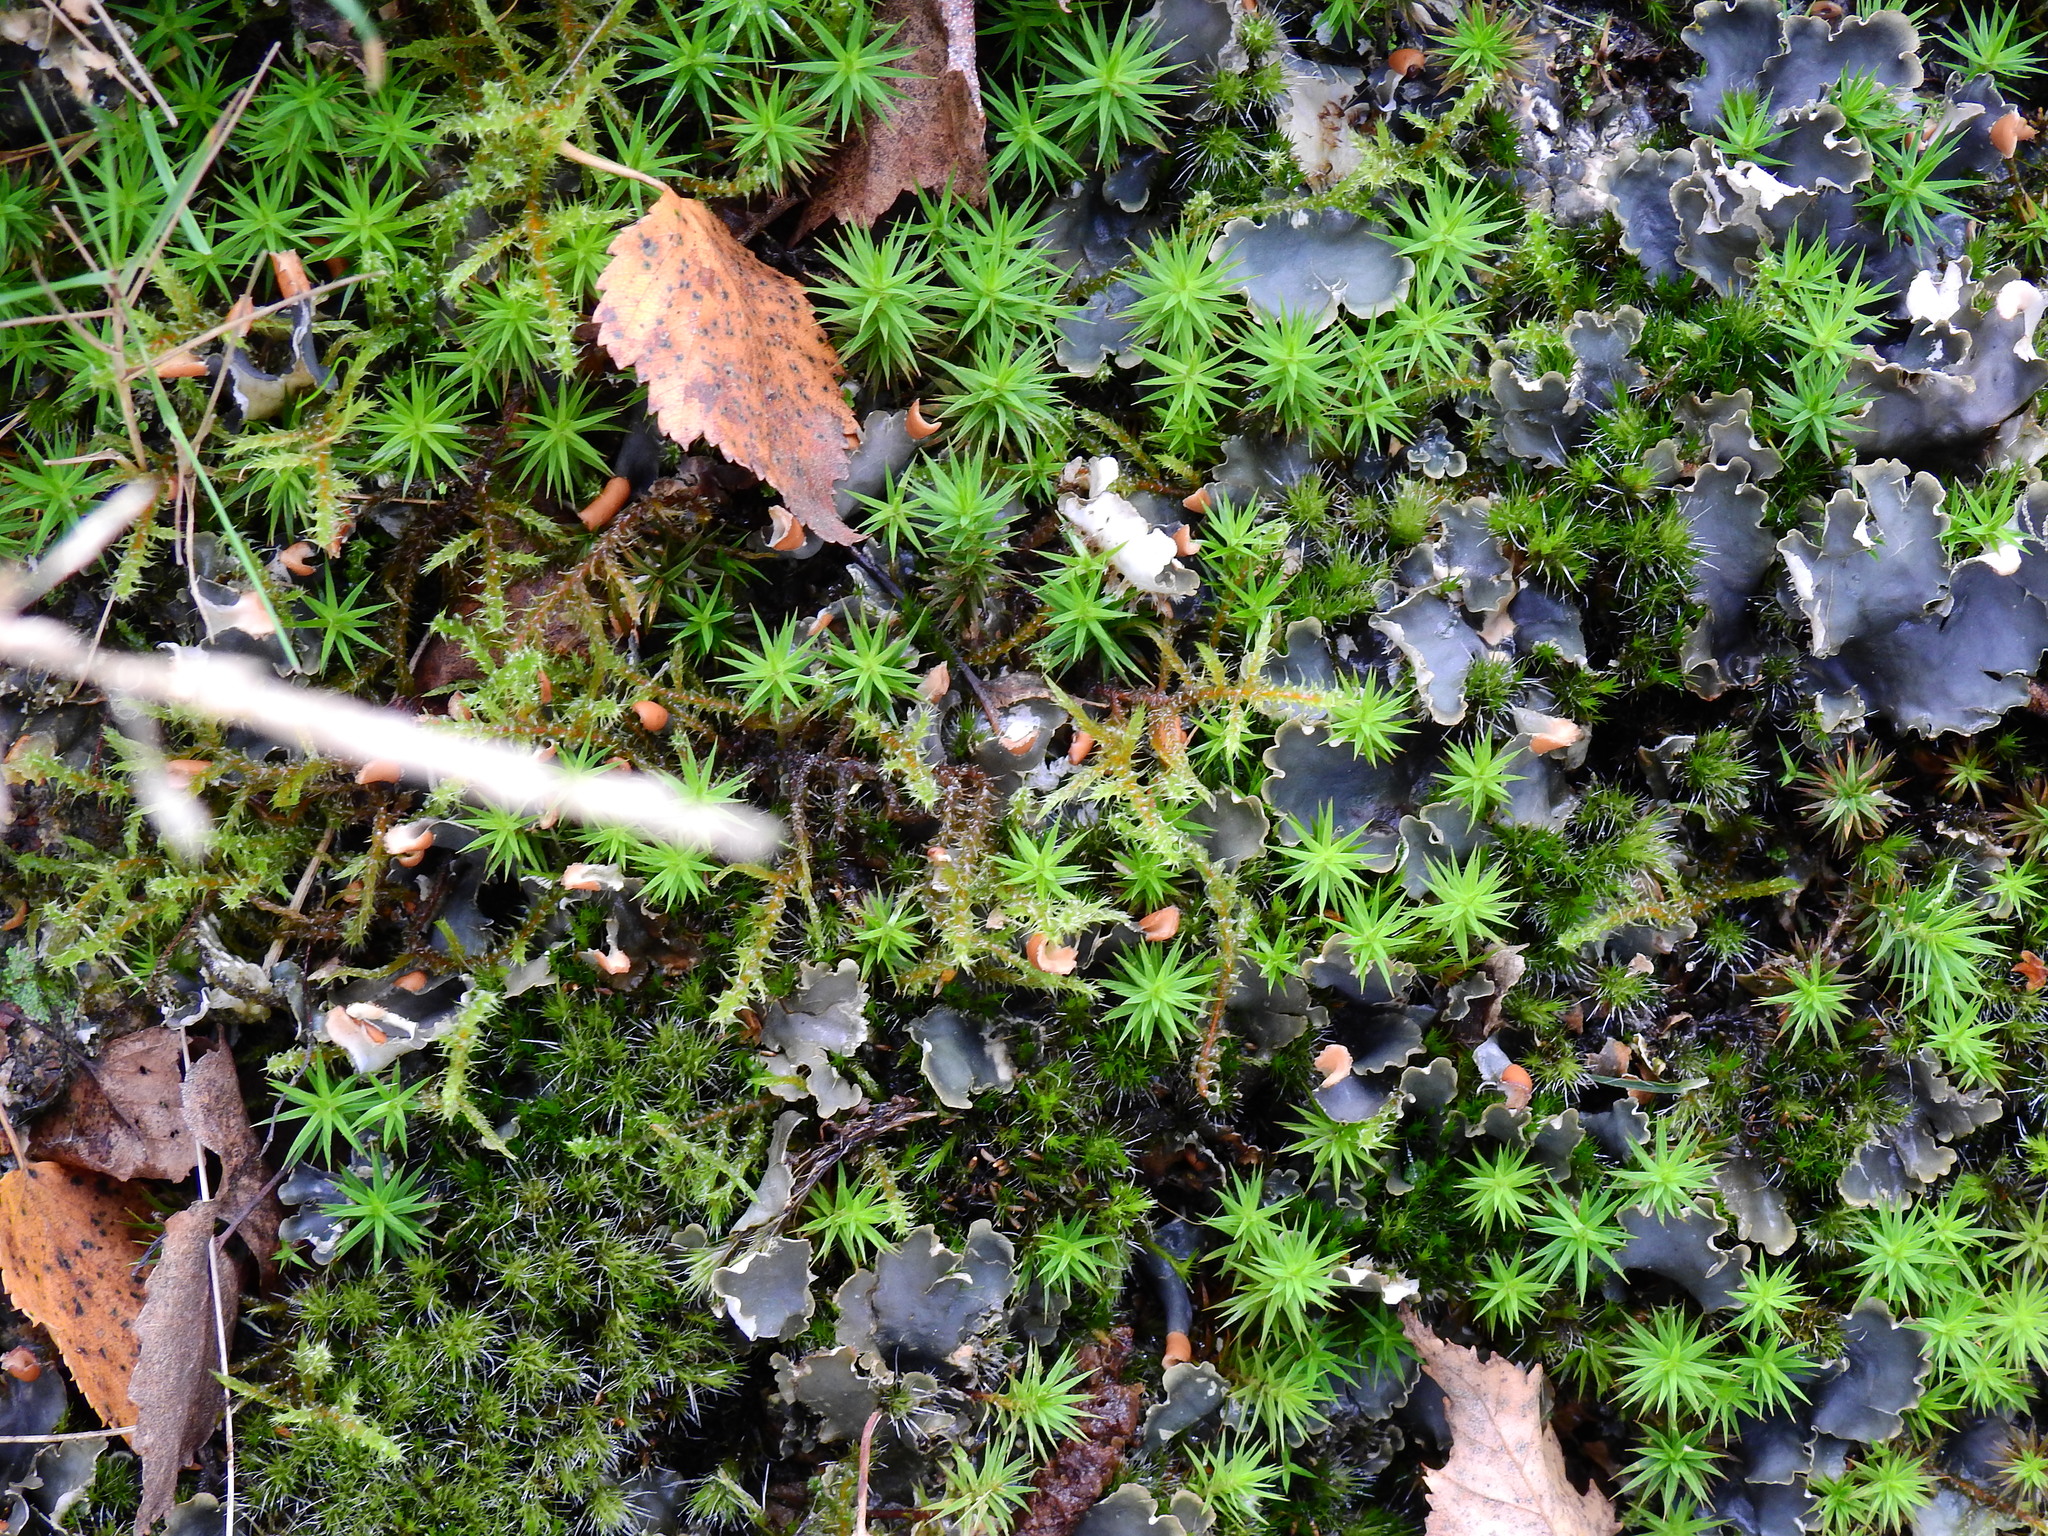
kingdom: Plantae
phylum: Bryophyta
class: Polytrichopsida
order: Polytrichales
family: Polytrichaceae
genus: Polytrichum
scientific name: Polytrichum formosum
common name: Bank haircap moss
